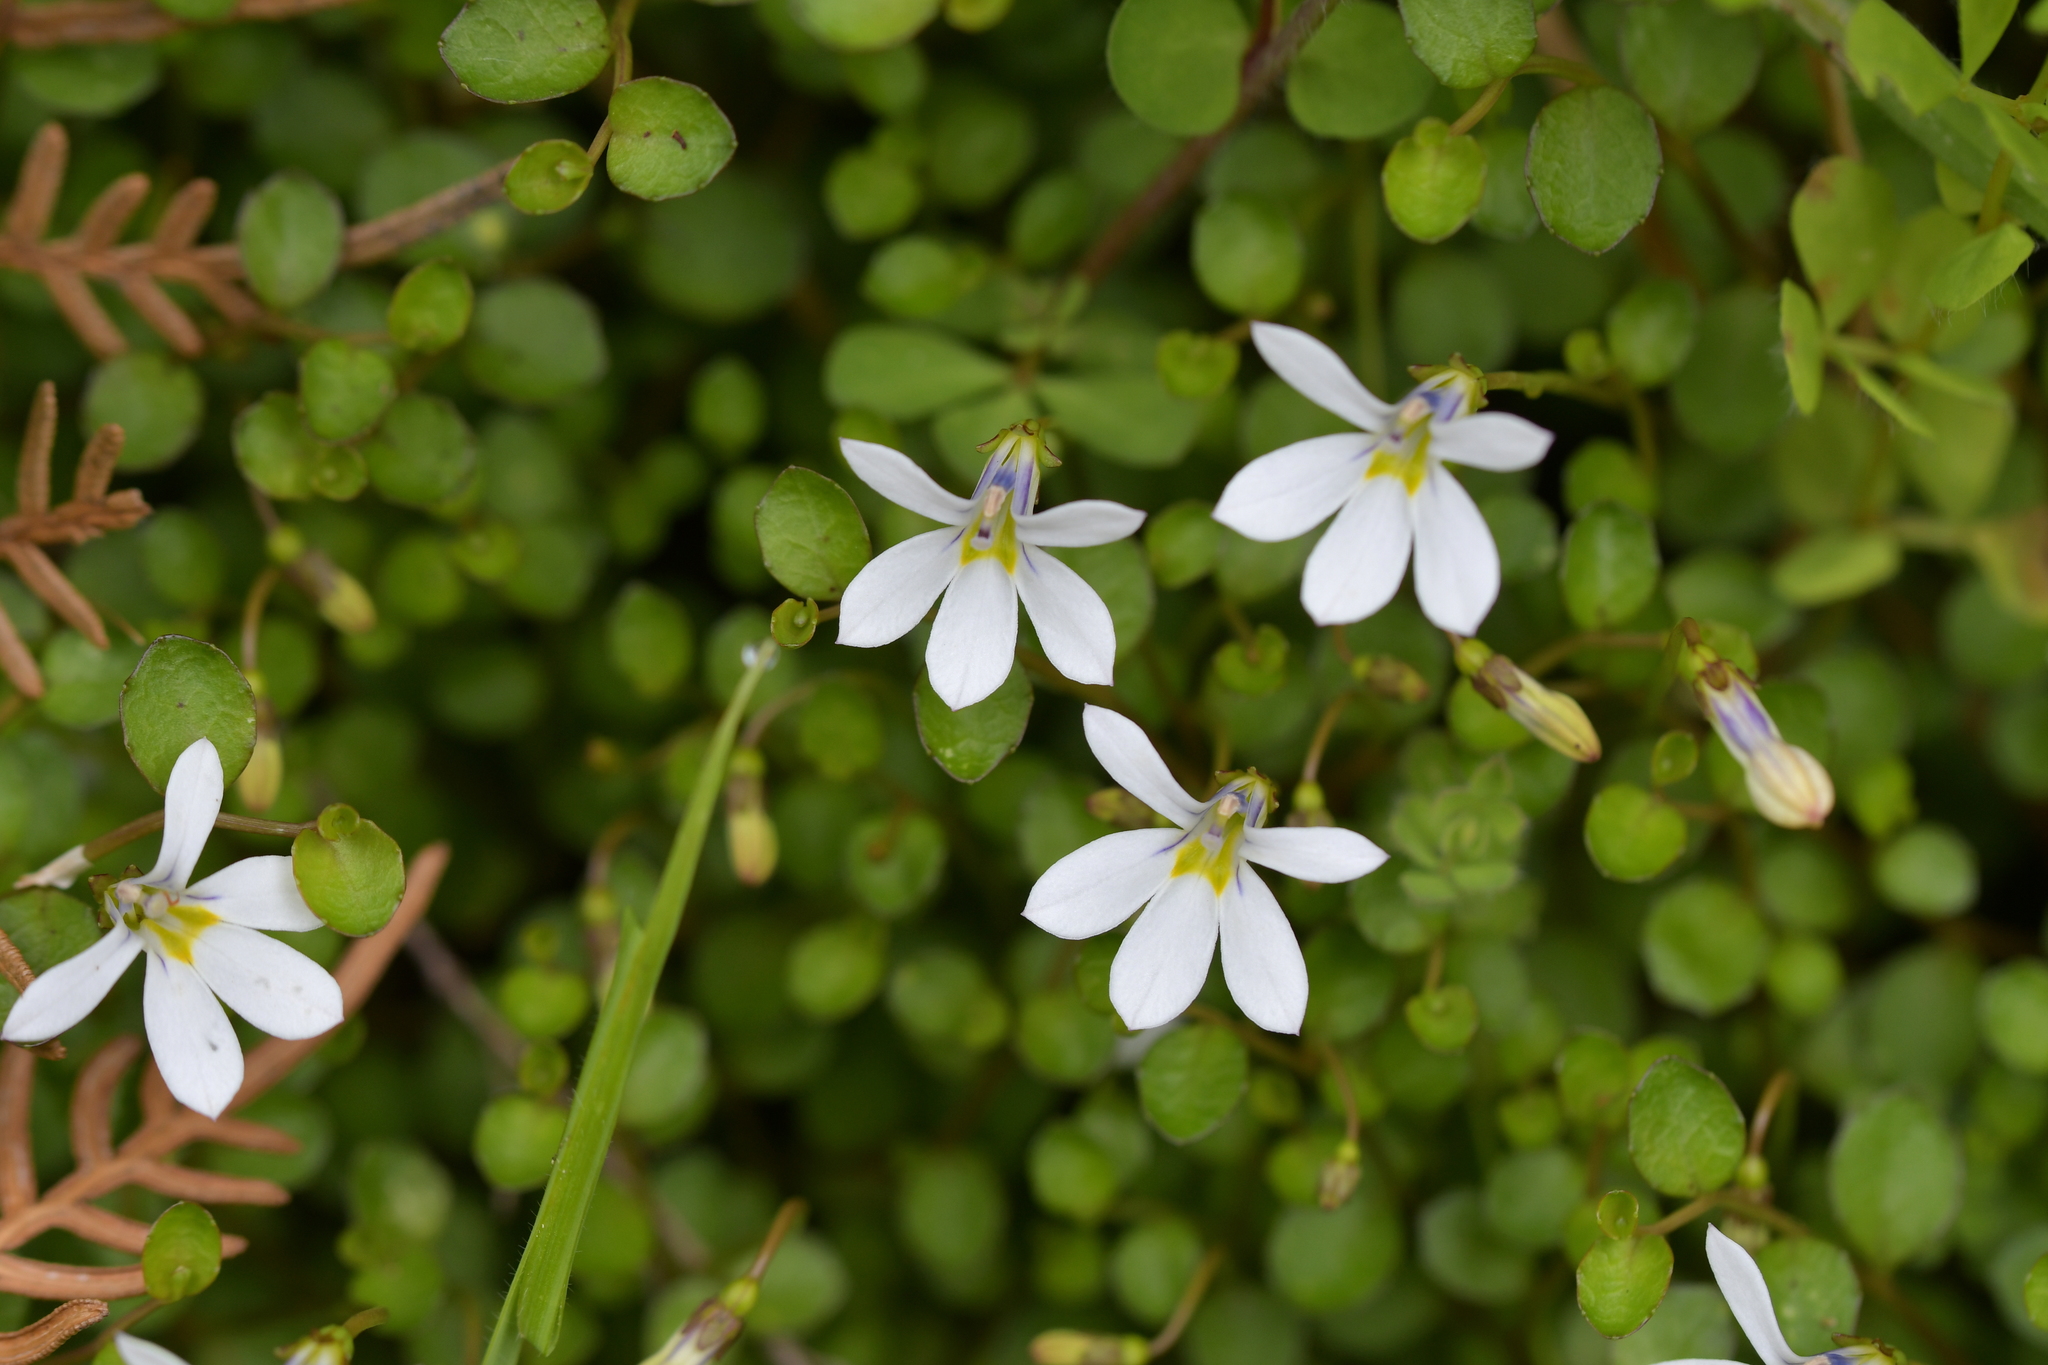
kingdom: Plantae
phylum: Tracheophyta
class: Magnoliopsida
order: Asterales
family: Campanulaceae
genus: Lobelia
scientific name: Lobelia angulata
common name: Lawn lobelia
